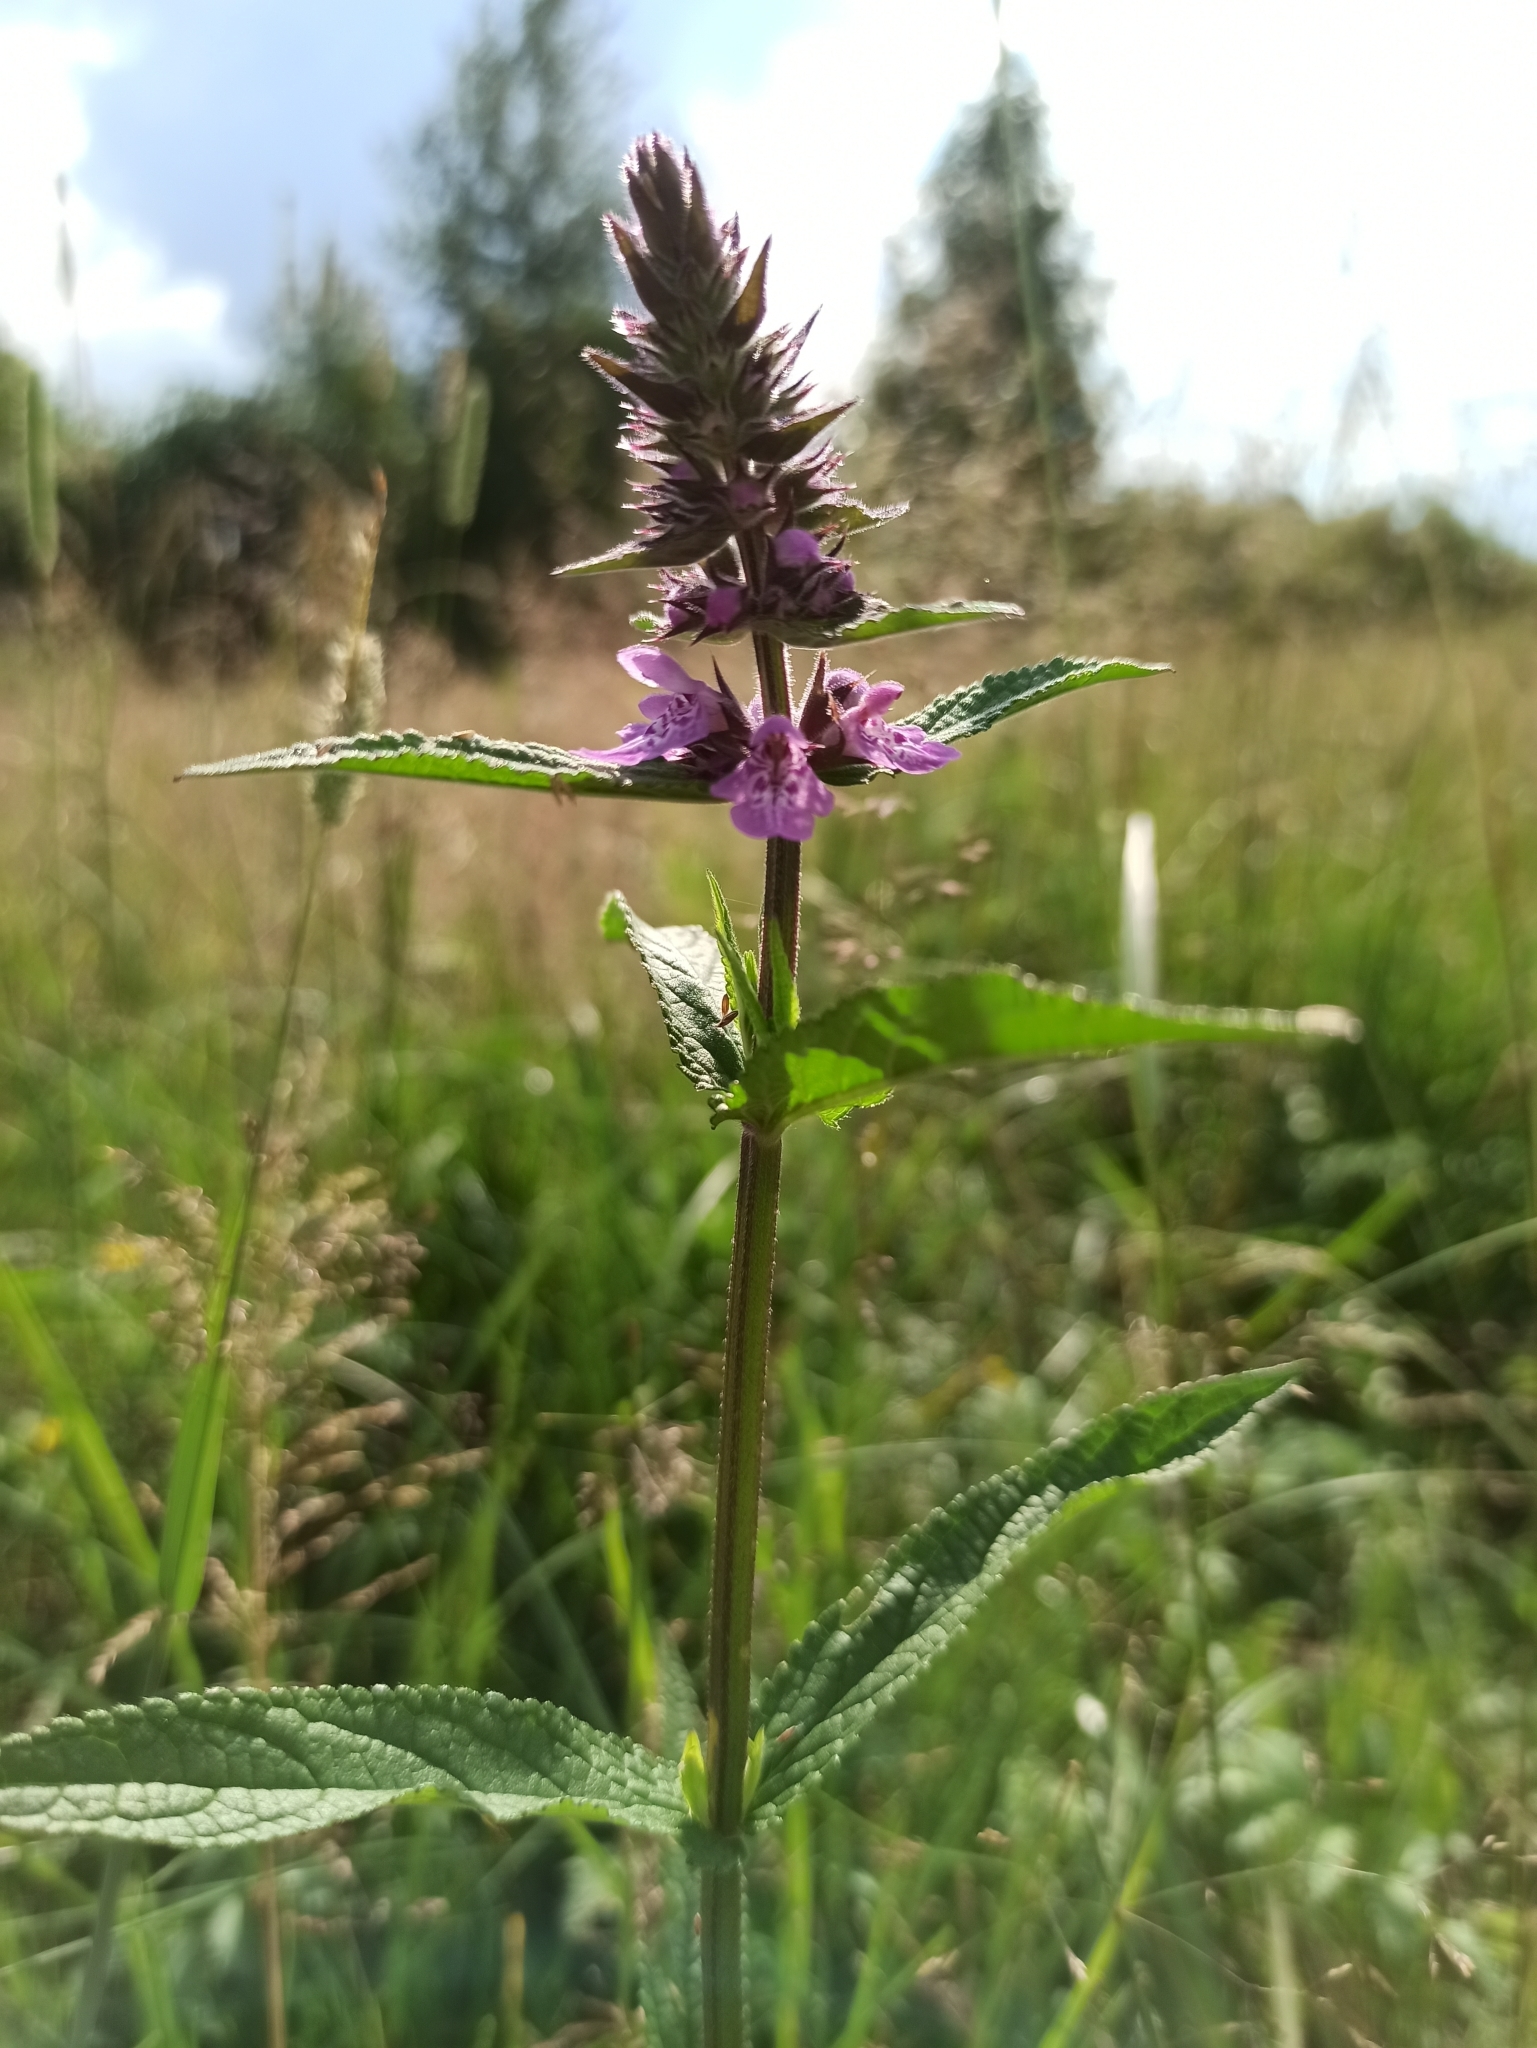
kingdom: Plantae
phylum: Tracheophyta
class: Magnoliopsida
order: Lamiales
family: Lamiaceae
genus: Stachys
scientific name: Stachys palustris
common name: Marsh woundwort
